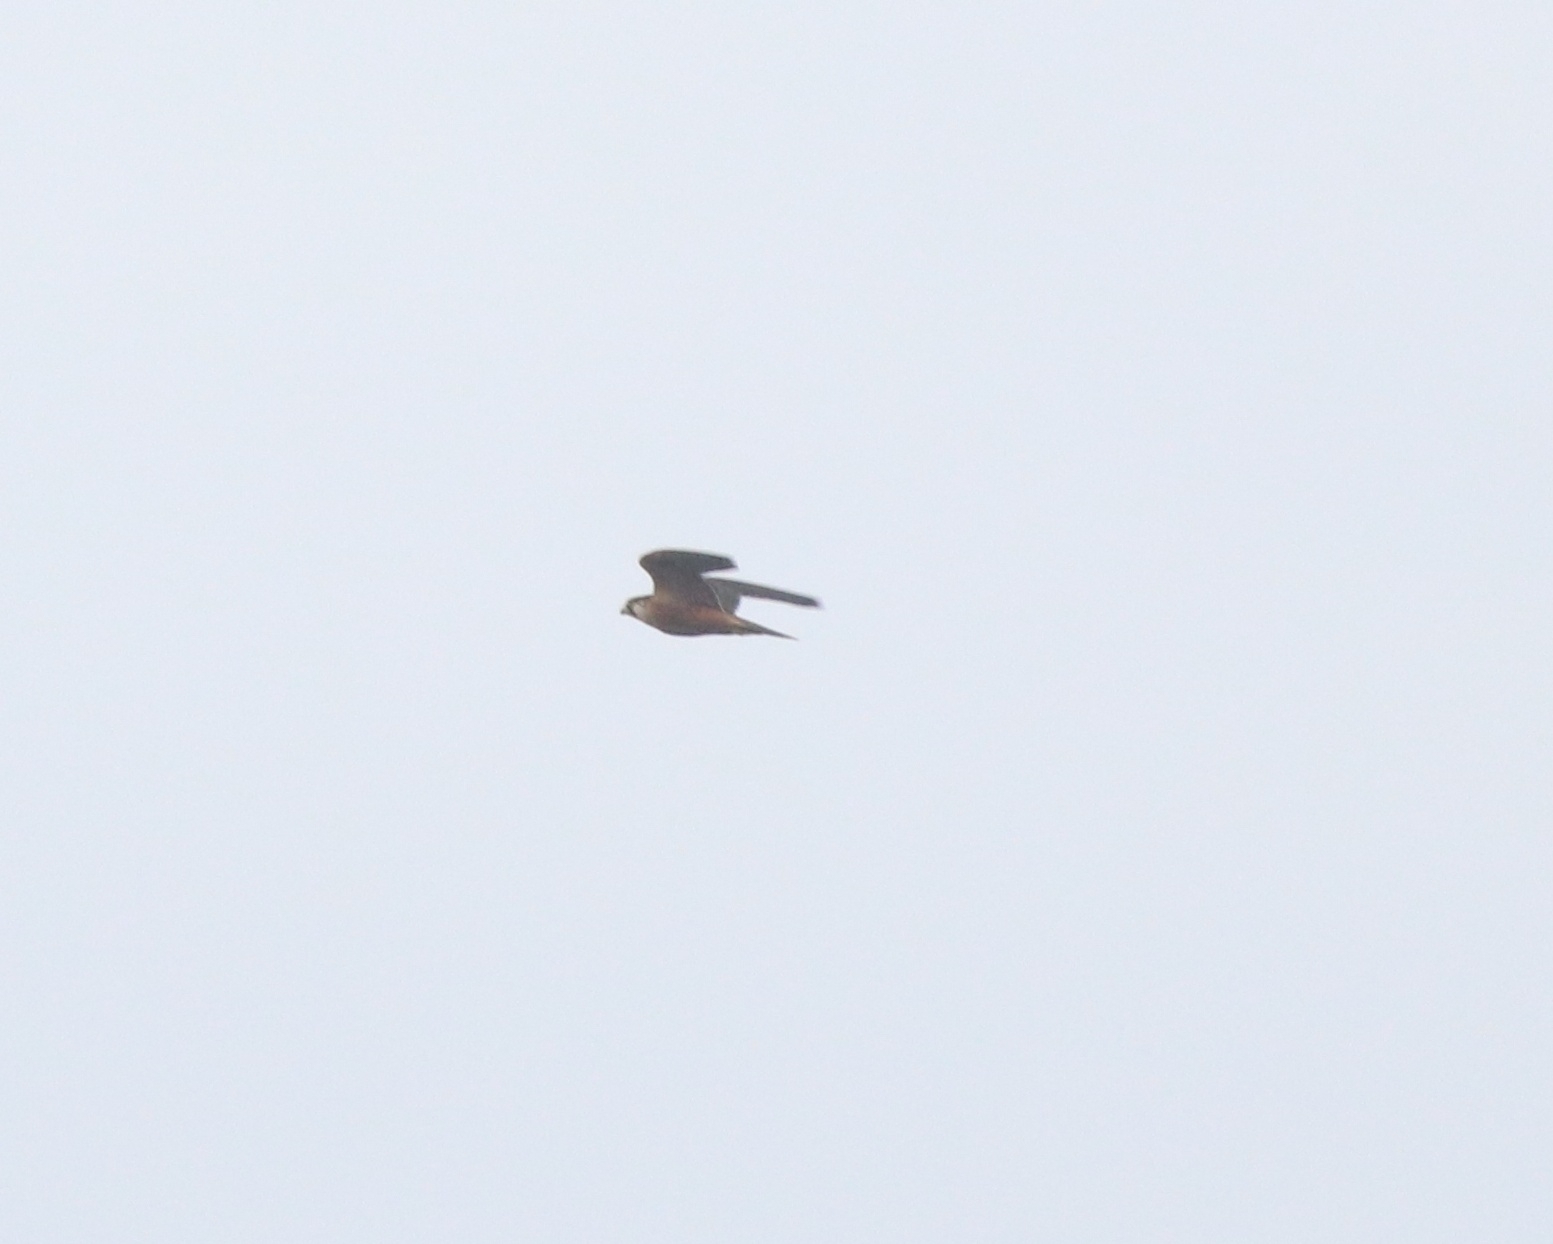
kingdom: Animalia
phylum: Chordata
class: Aves
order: Falconiformes
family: Falconidae
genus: Falco
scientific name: Falco peregrinus
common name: Peregrine falcon
